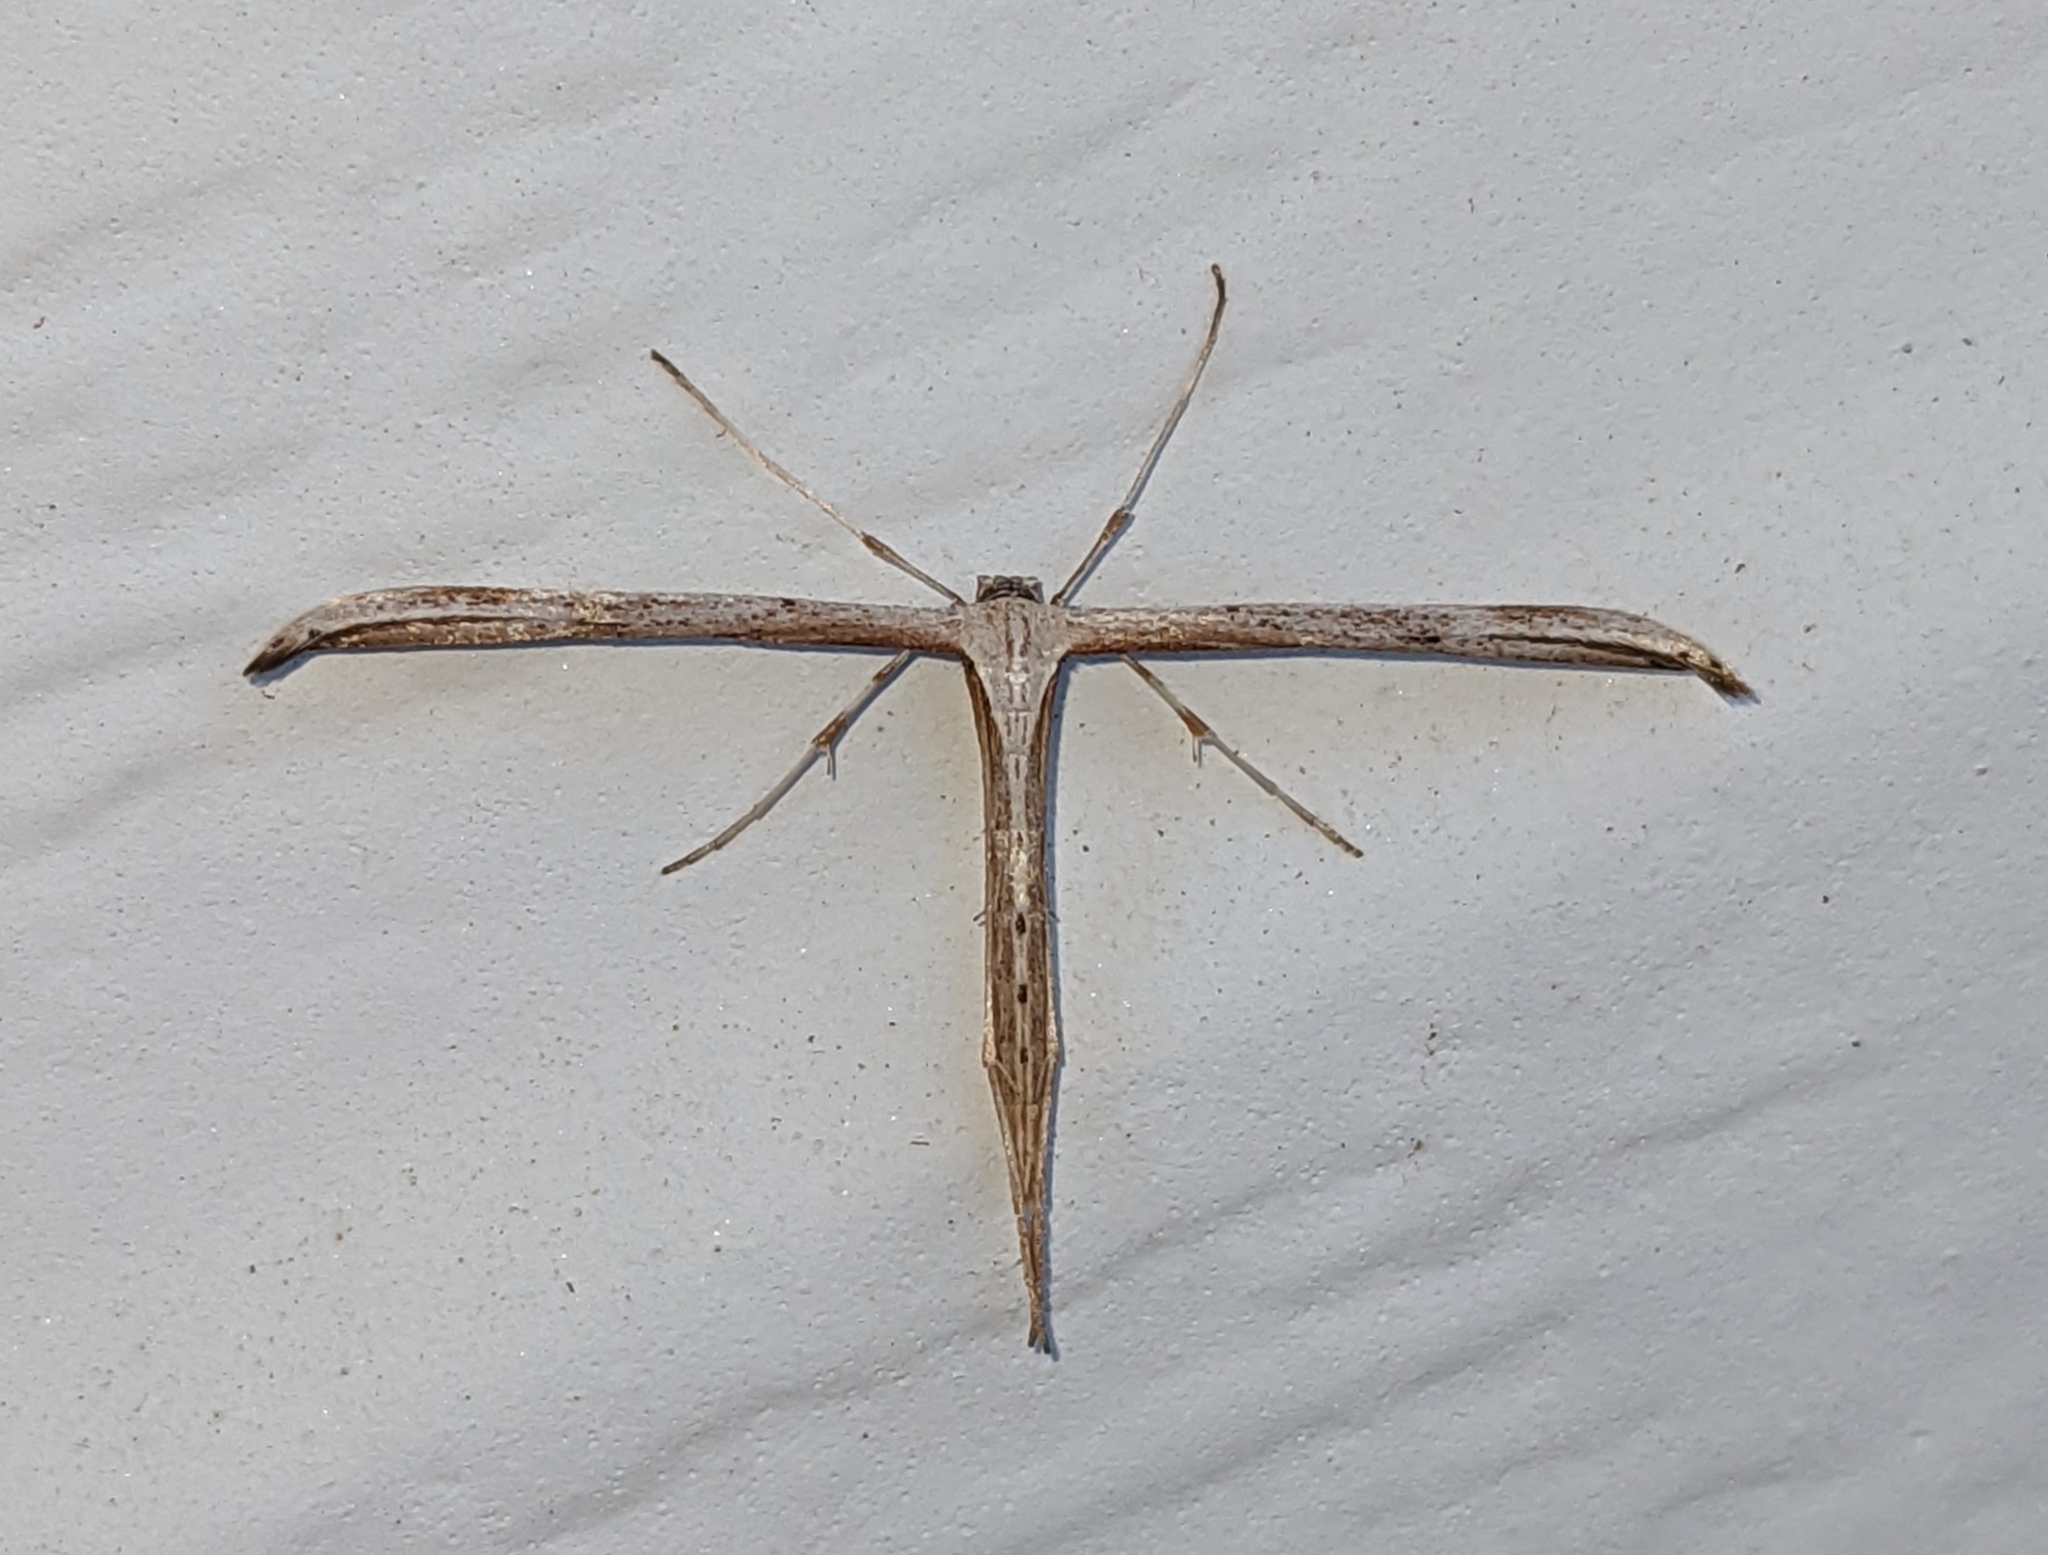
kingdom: Animalia
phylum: Arthropoda
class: Insecta
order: Lepidoptera
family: Pterophoridae
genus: Emmelina
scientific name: Emmelina monodactyla
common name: Common plume
